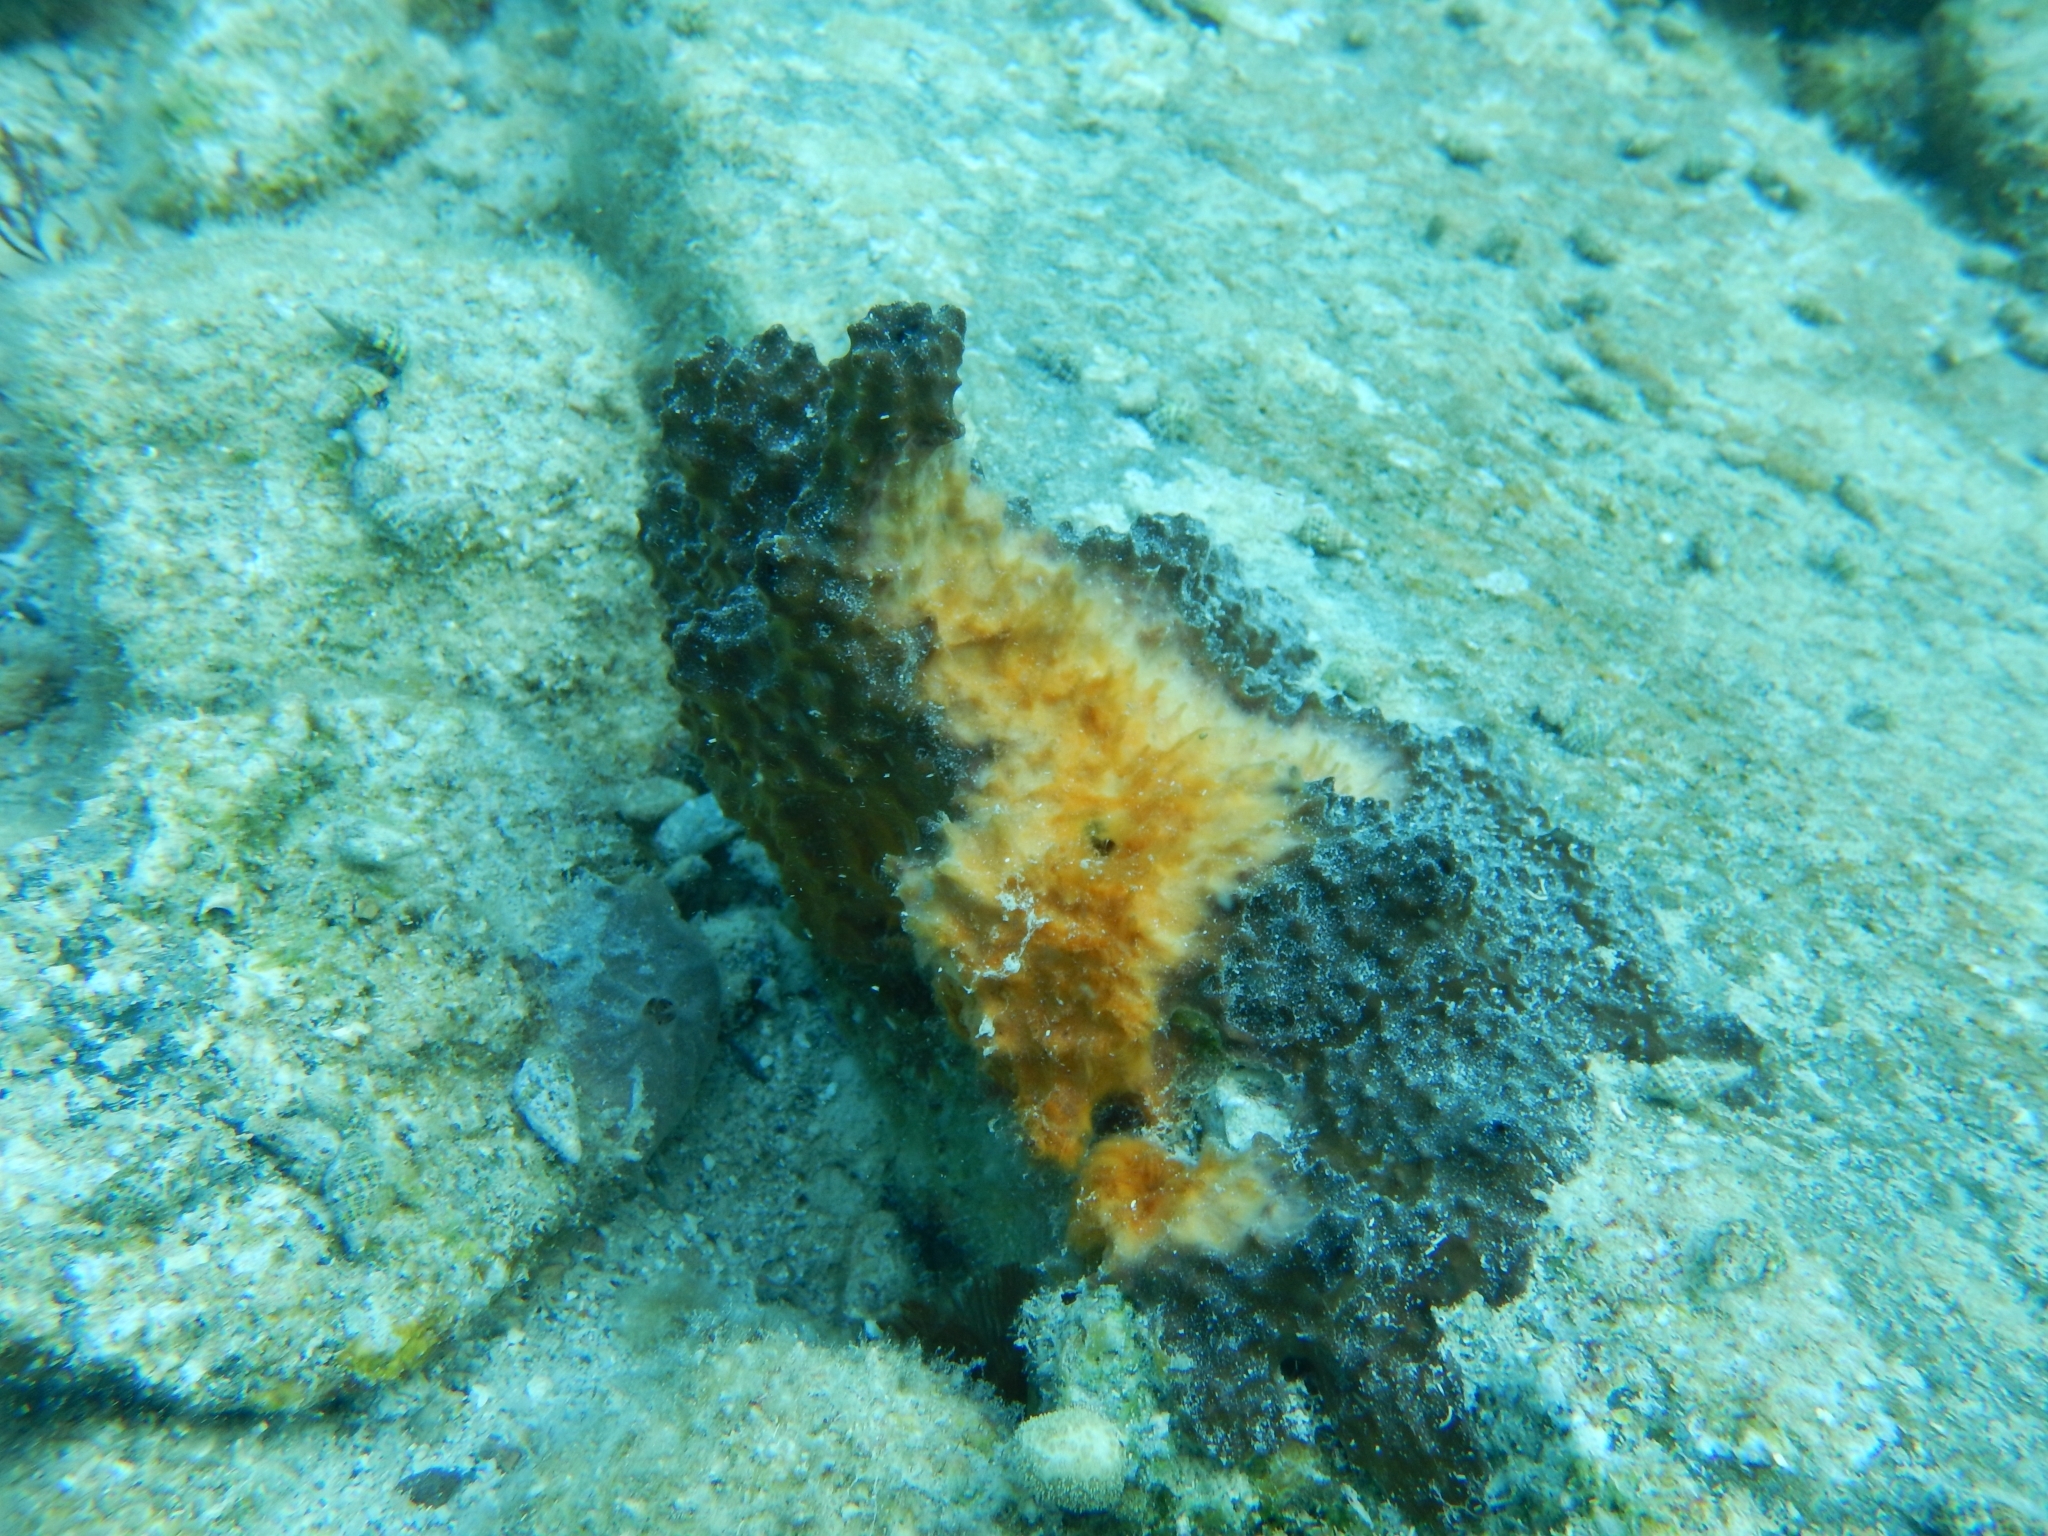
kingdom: Animalia
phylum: Porifera
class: Demospongiae
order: Dictyoceratida
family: Irciniidae
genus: Ircinia
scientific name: Ircinia felix
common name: Stinker sponge
